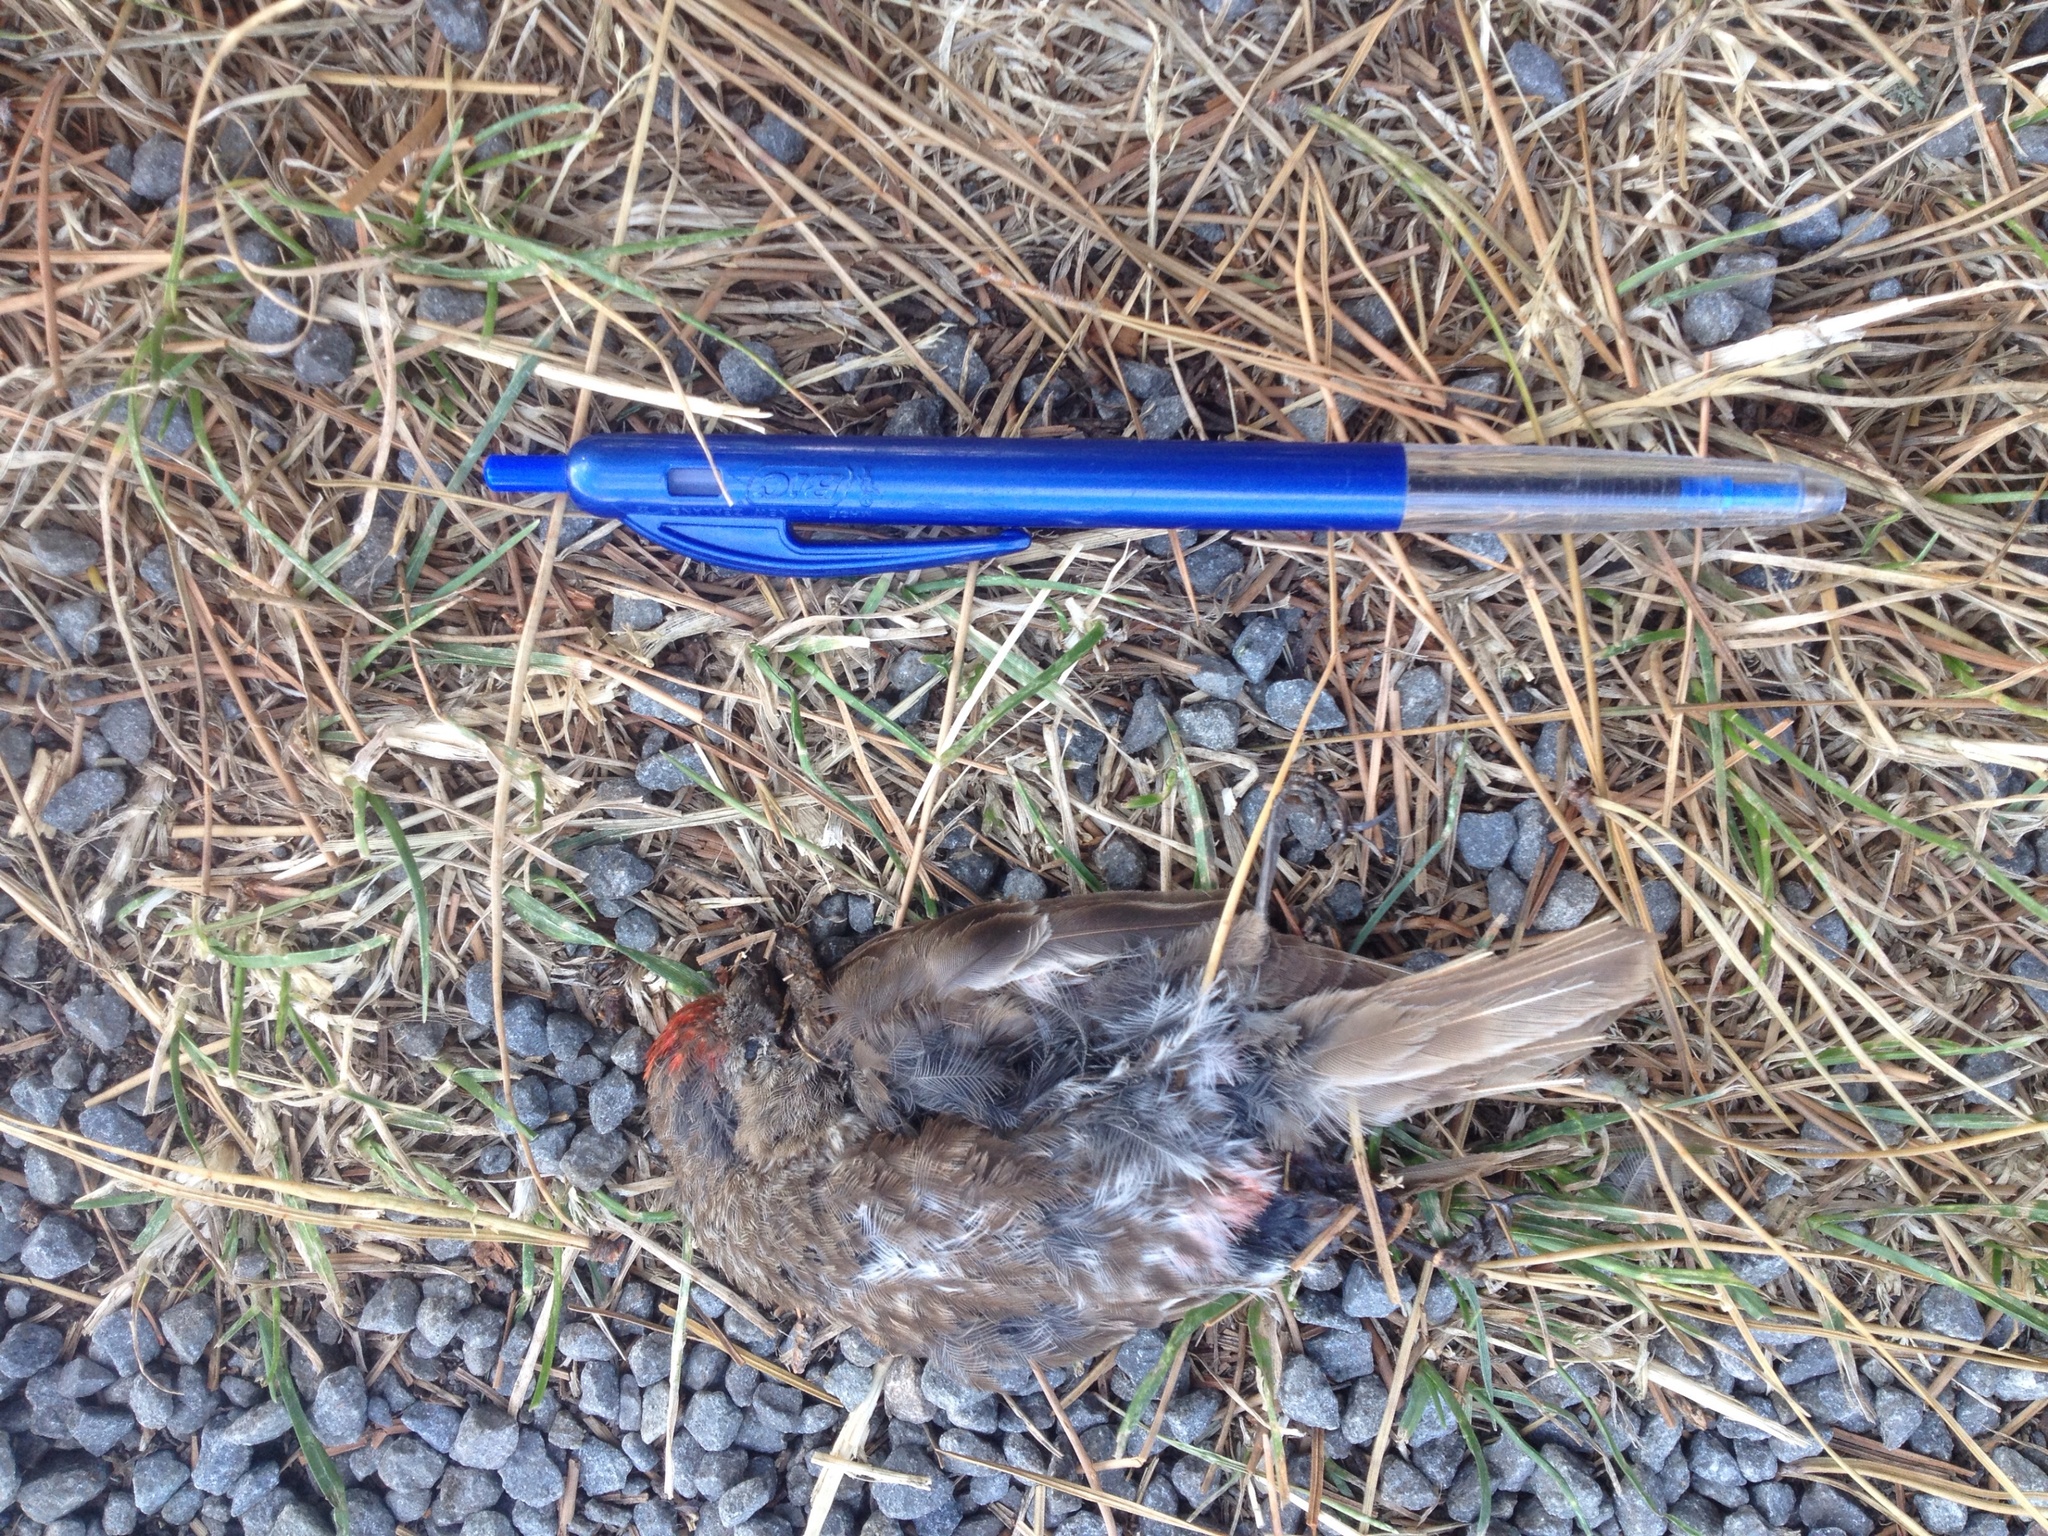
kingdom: Animalia
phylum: Chordata
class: Aves
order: Passeriformes
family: Fringillidae
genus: Acanthis
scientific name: Acanthis flammea
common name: Common redpoll
